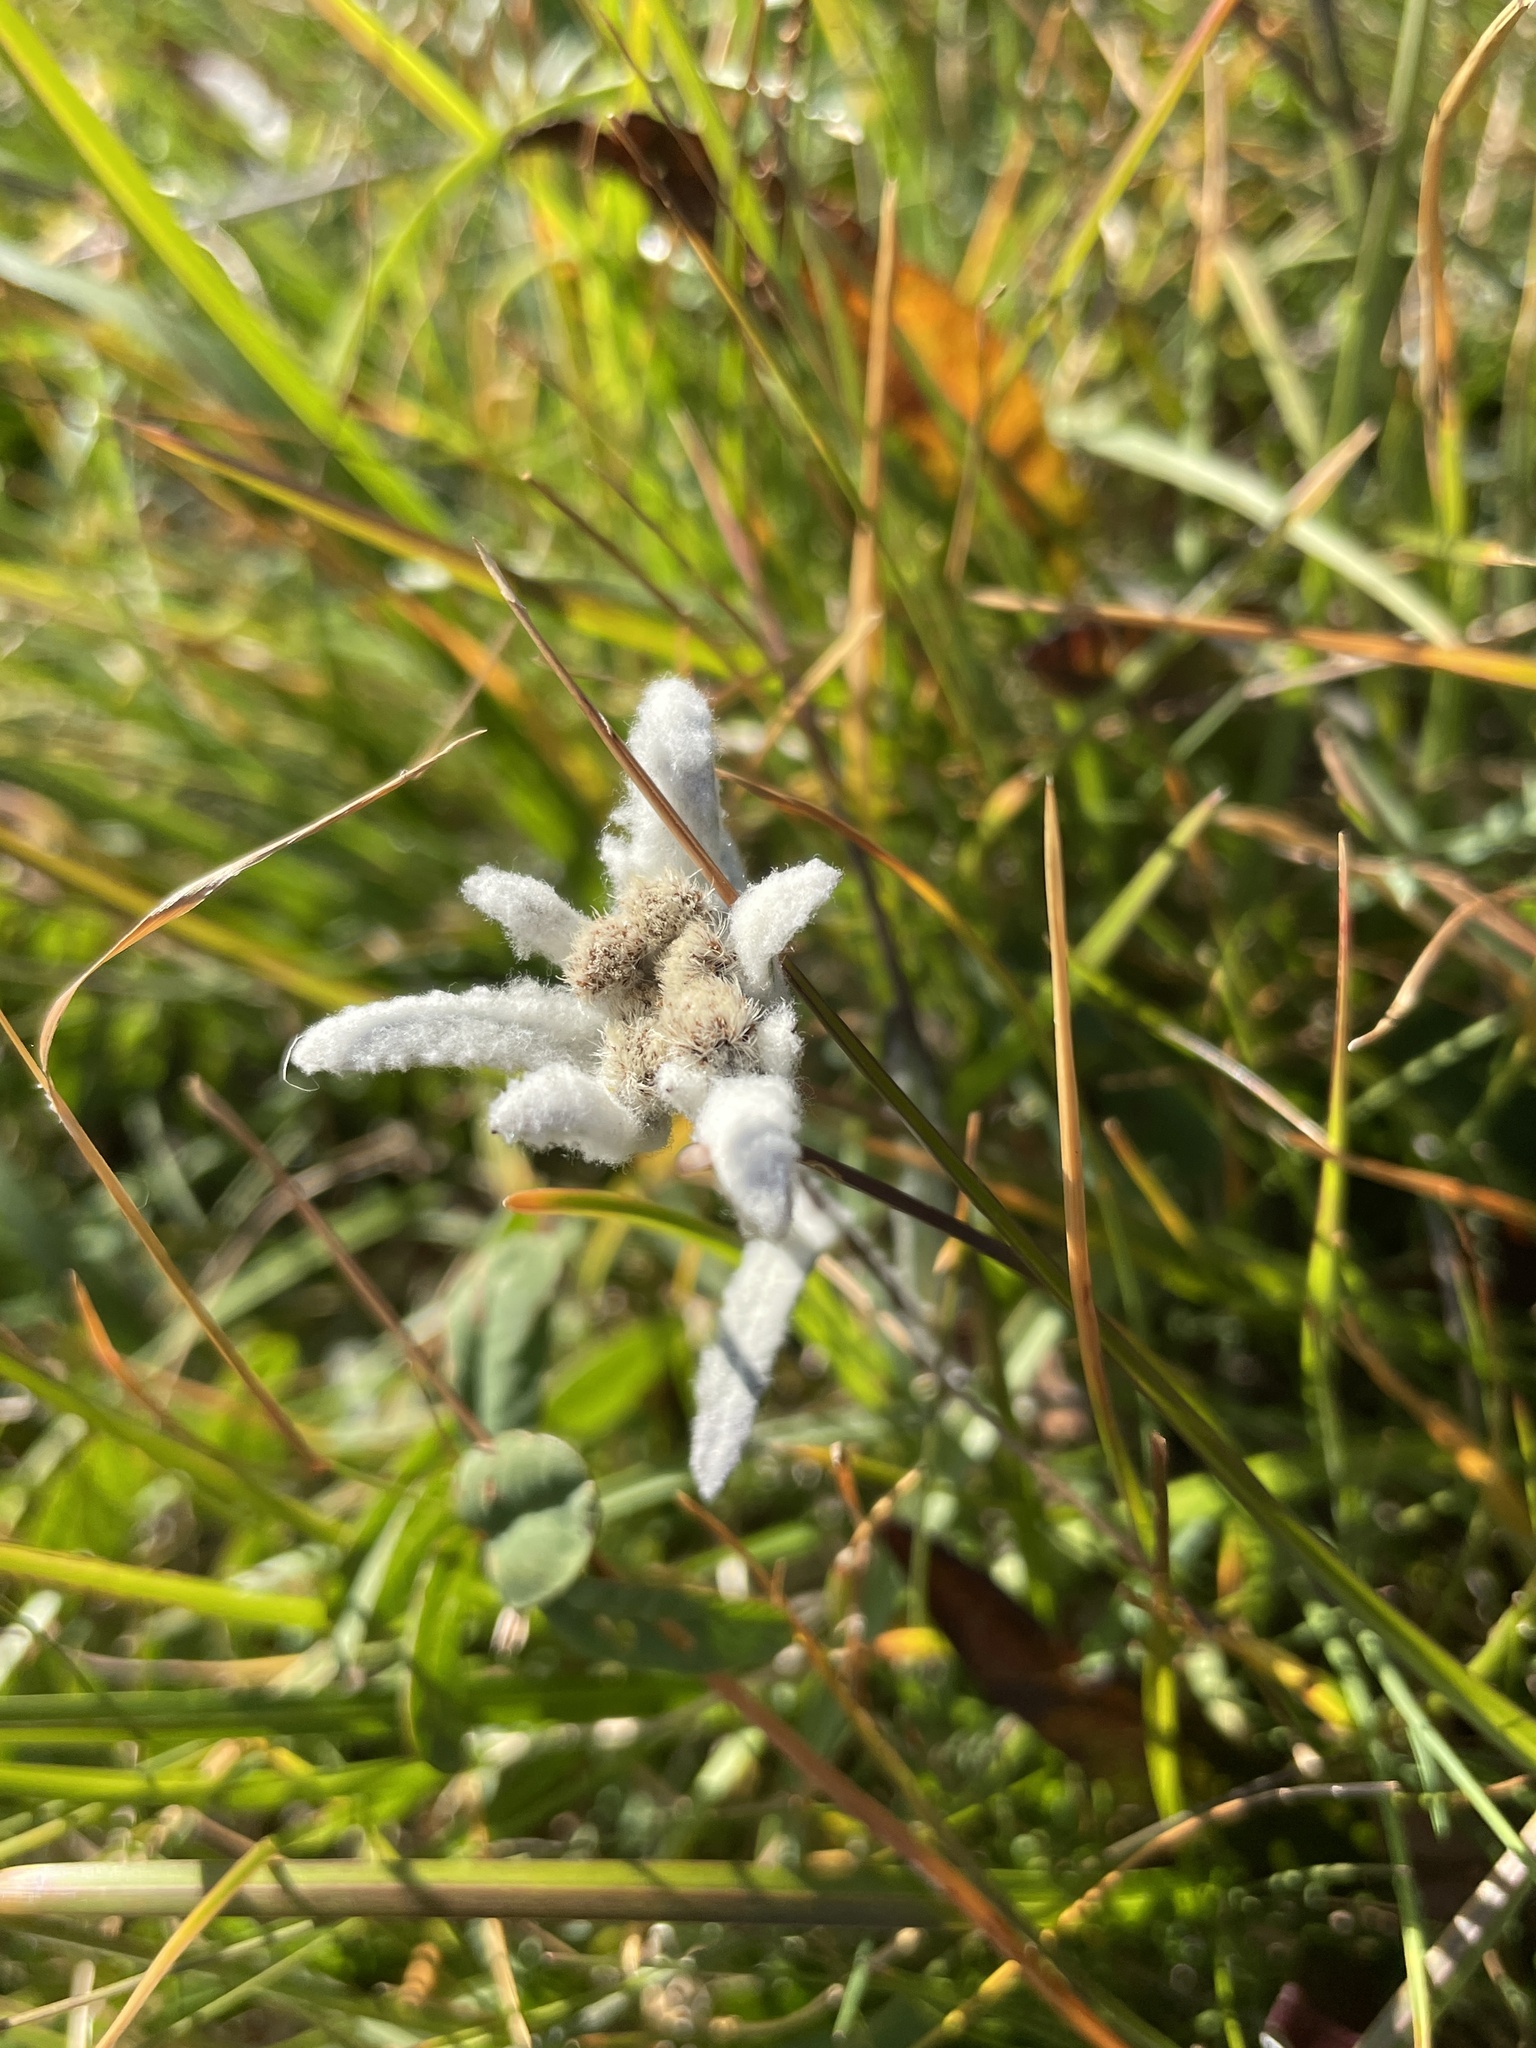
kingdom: Plantae
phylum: Tracheophyta
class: Magnoliopsida
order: Asterales
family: Asteraceae
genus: Leontopodium
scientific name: Leontopodium nivale
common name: Edelweiss
